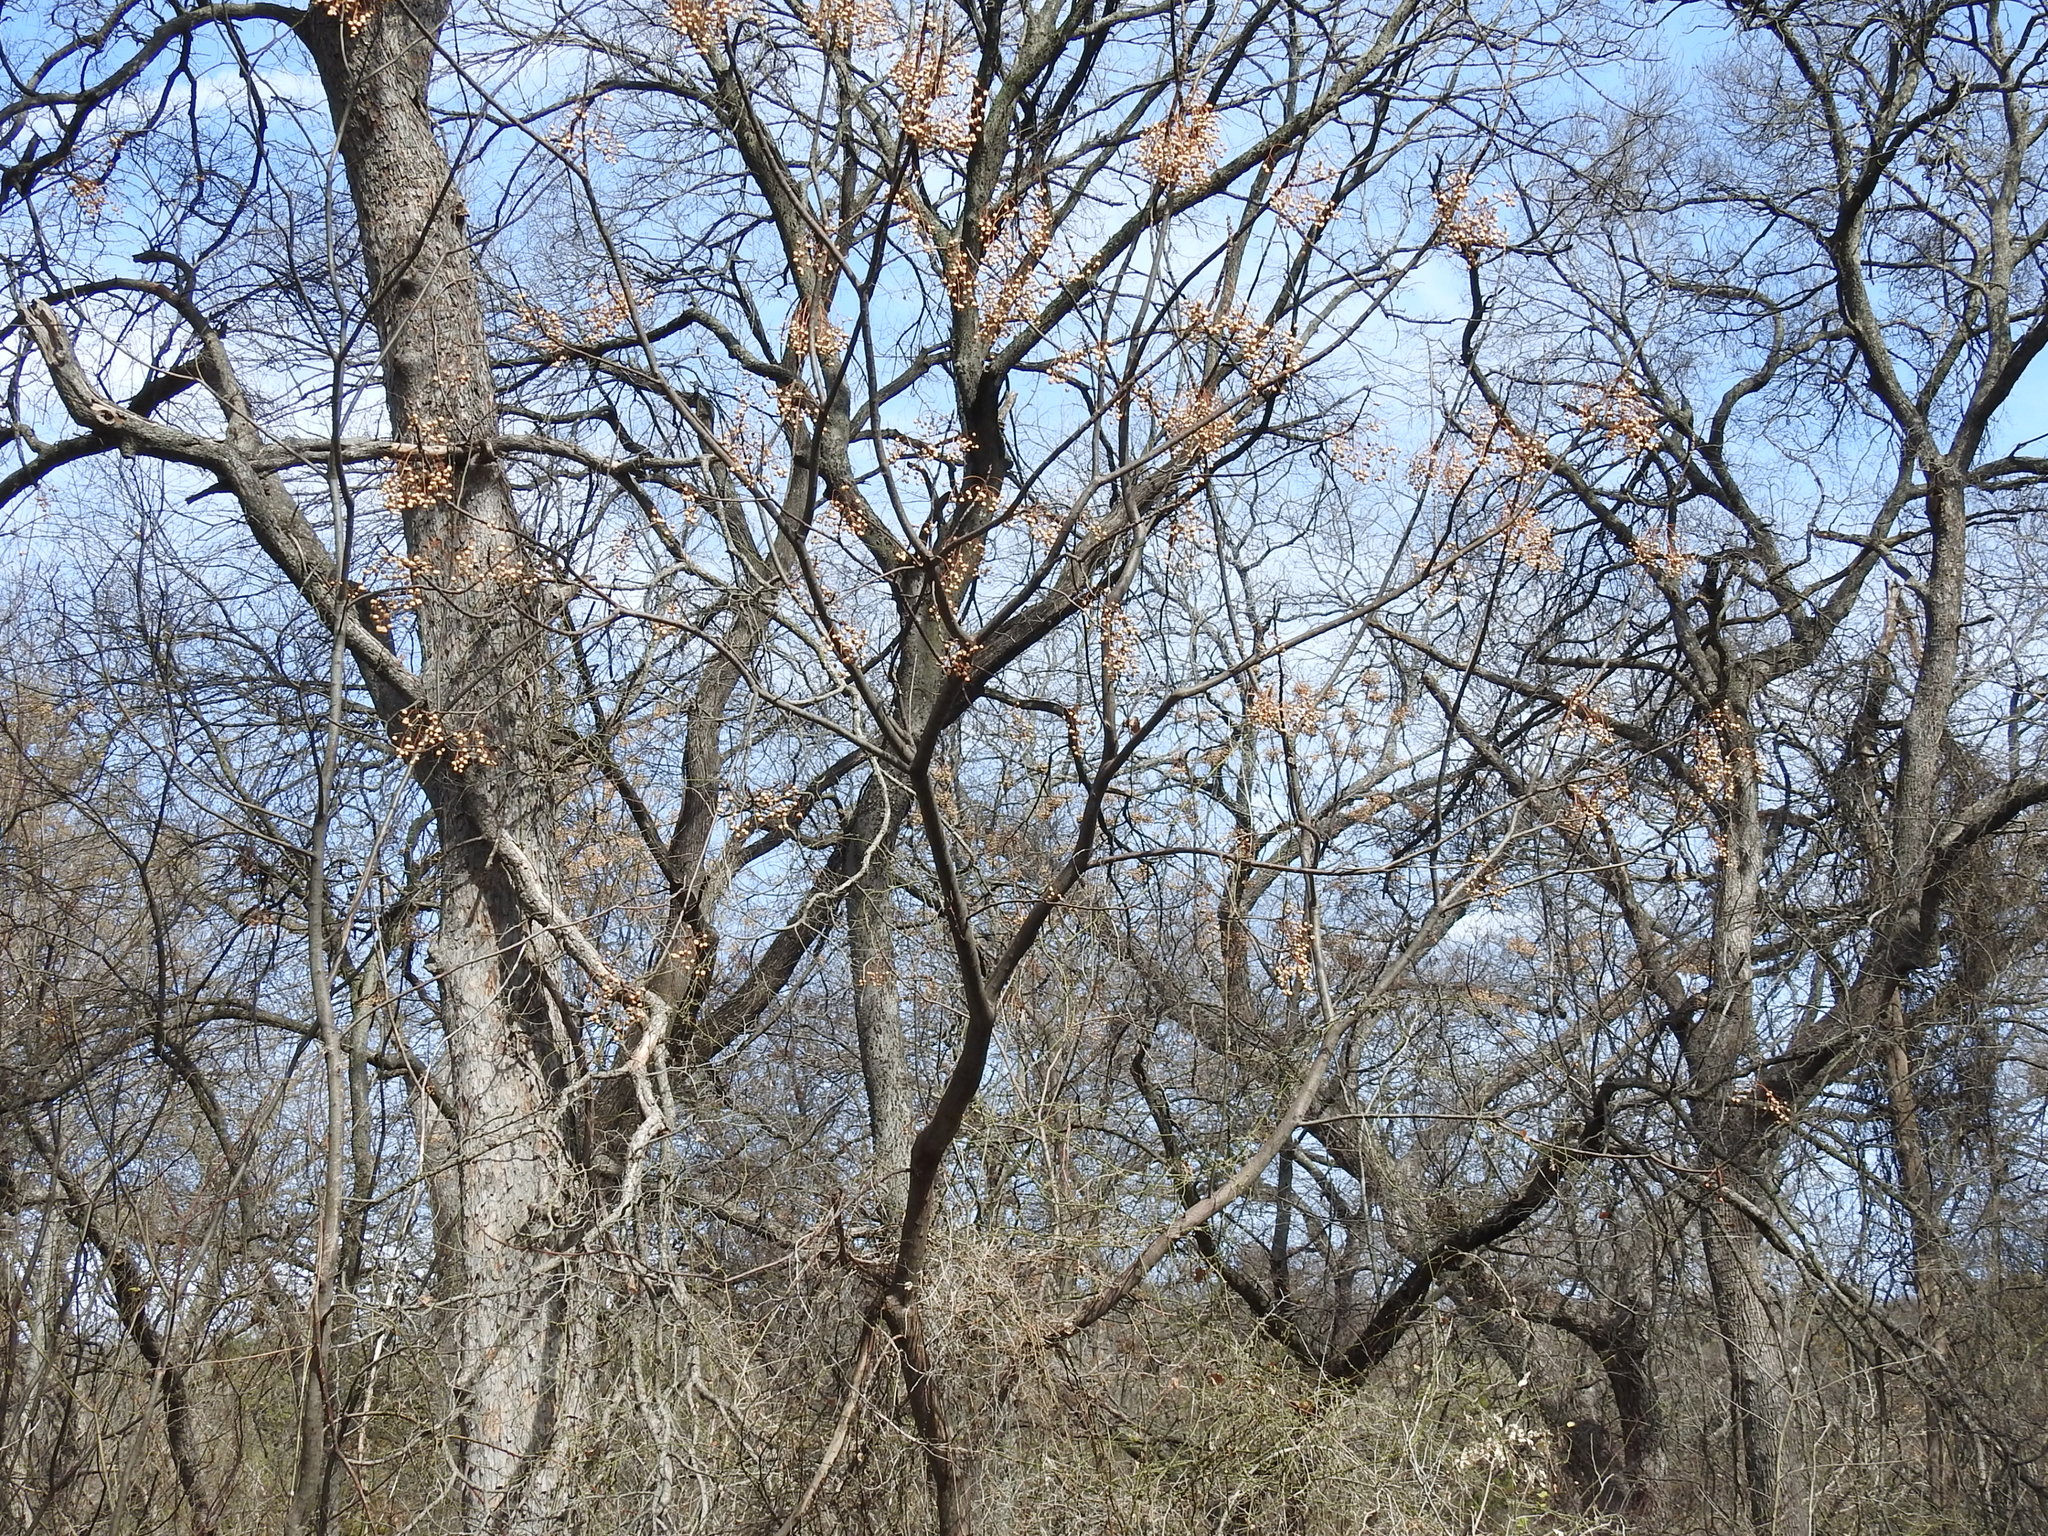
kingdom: Plantae
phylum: Tracheophyta
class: Magnoliopsida
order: Sapindales
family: Meliaceae
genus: Melia
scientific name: Melia azedarach
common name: Chinaberrytree
